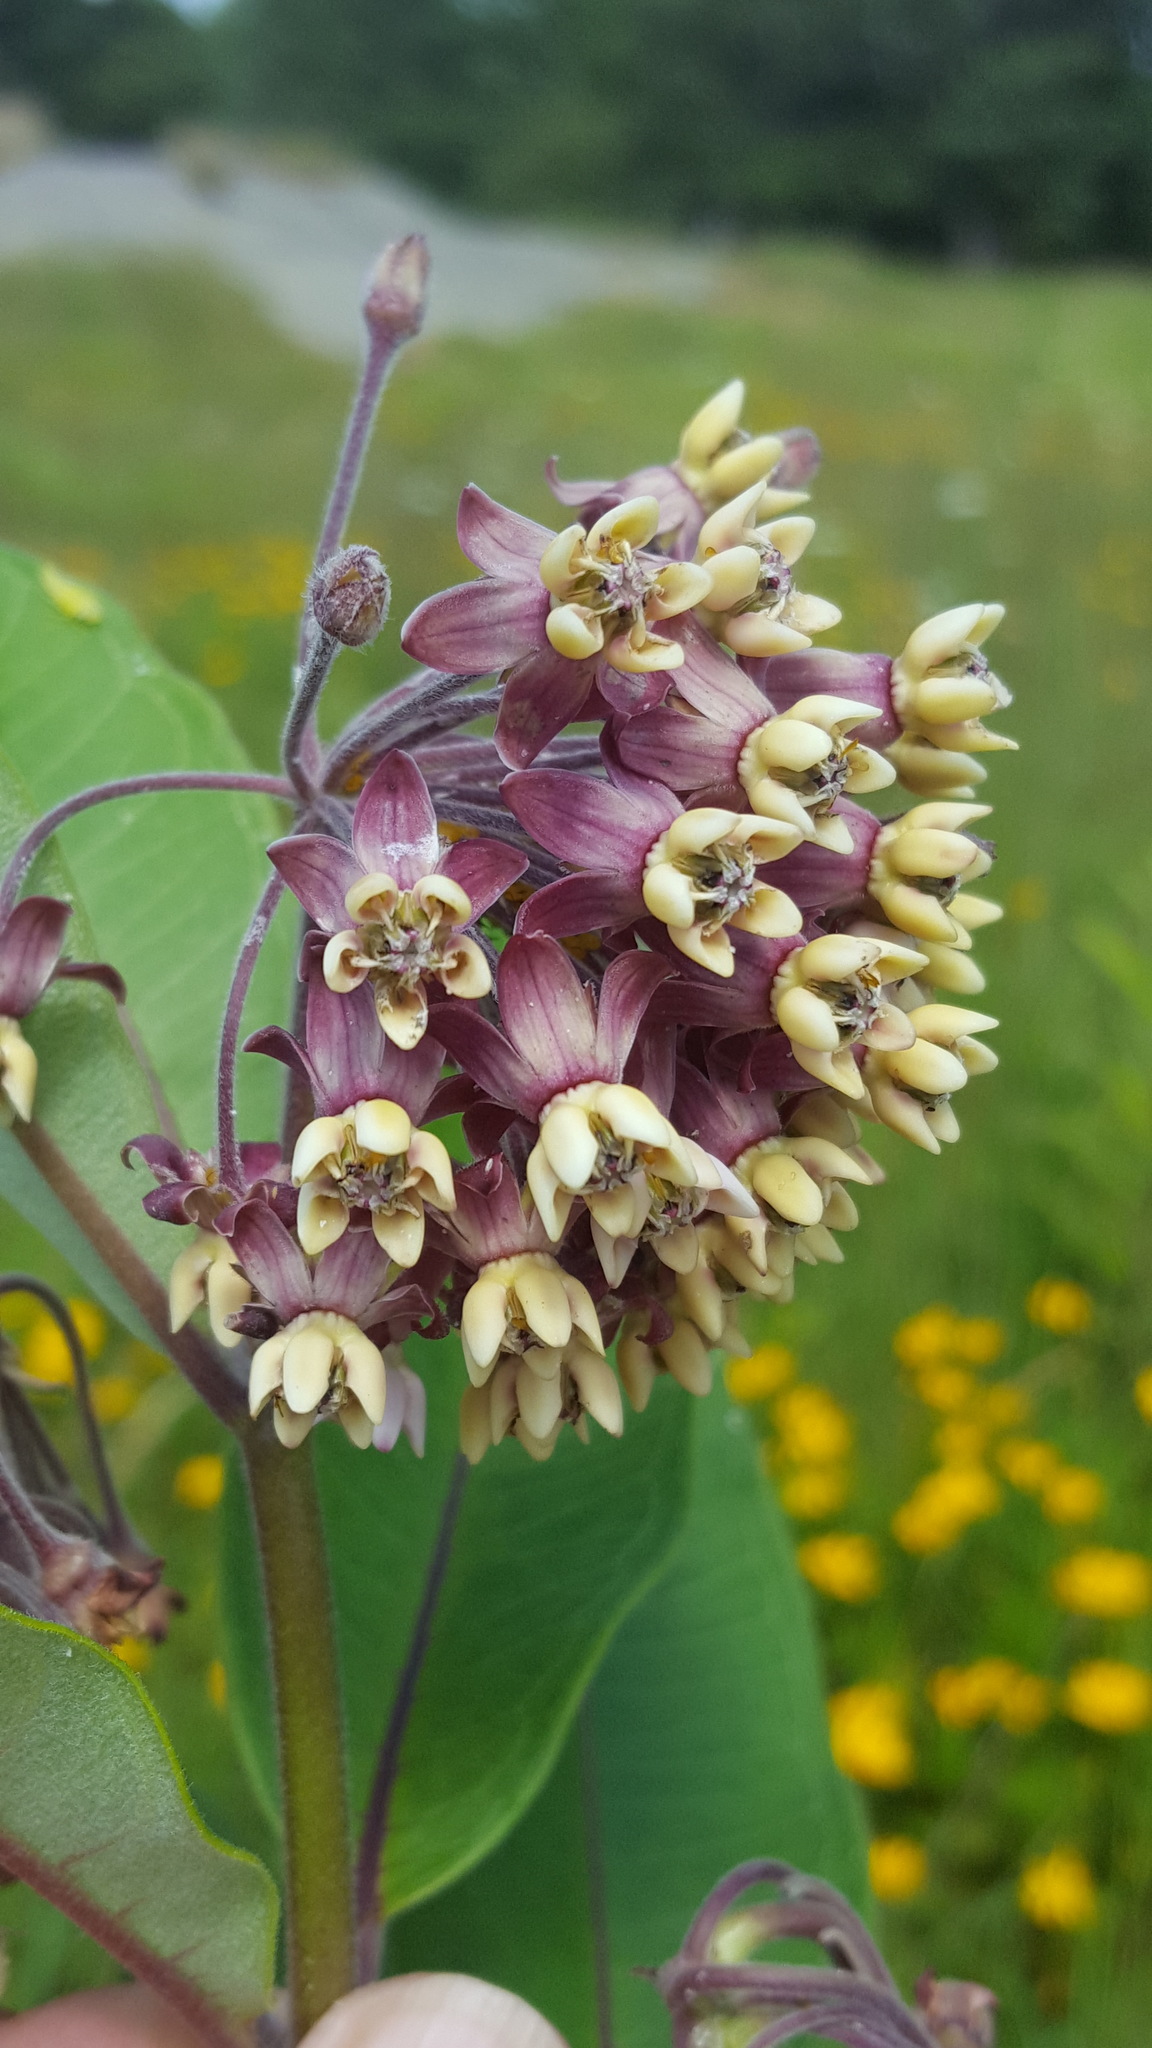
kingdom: Plantae
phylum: Tracheophyta
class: Magnoliopsida
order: Gentianales
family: Apocynaceae
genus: Asclepias
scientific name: Asclepias syriaca
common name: Common milkweed
